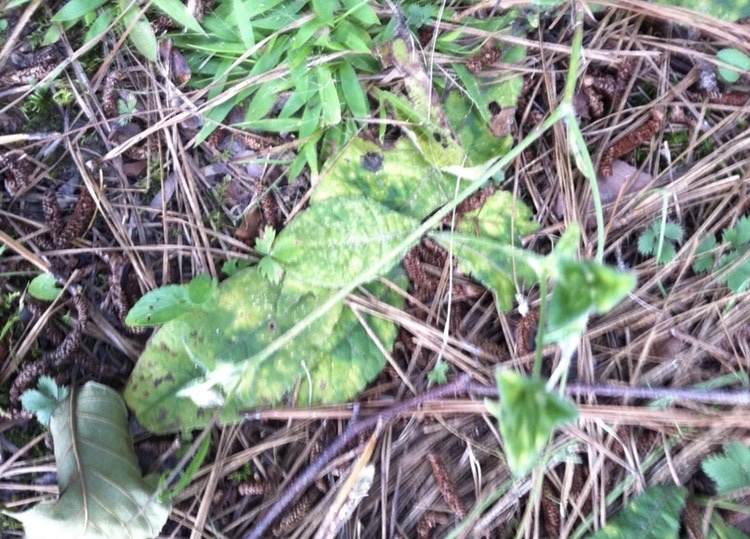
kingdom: Plantae
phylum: Tracheophyta
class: Magnoliopsida
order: Asterales
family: Asteraceae
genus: Elephantopus
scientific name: Elephantopus tomentosus
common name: Tobacco-weed
